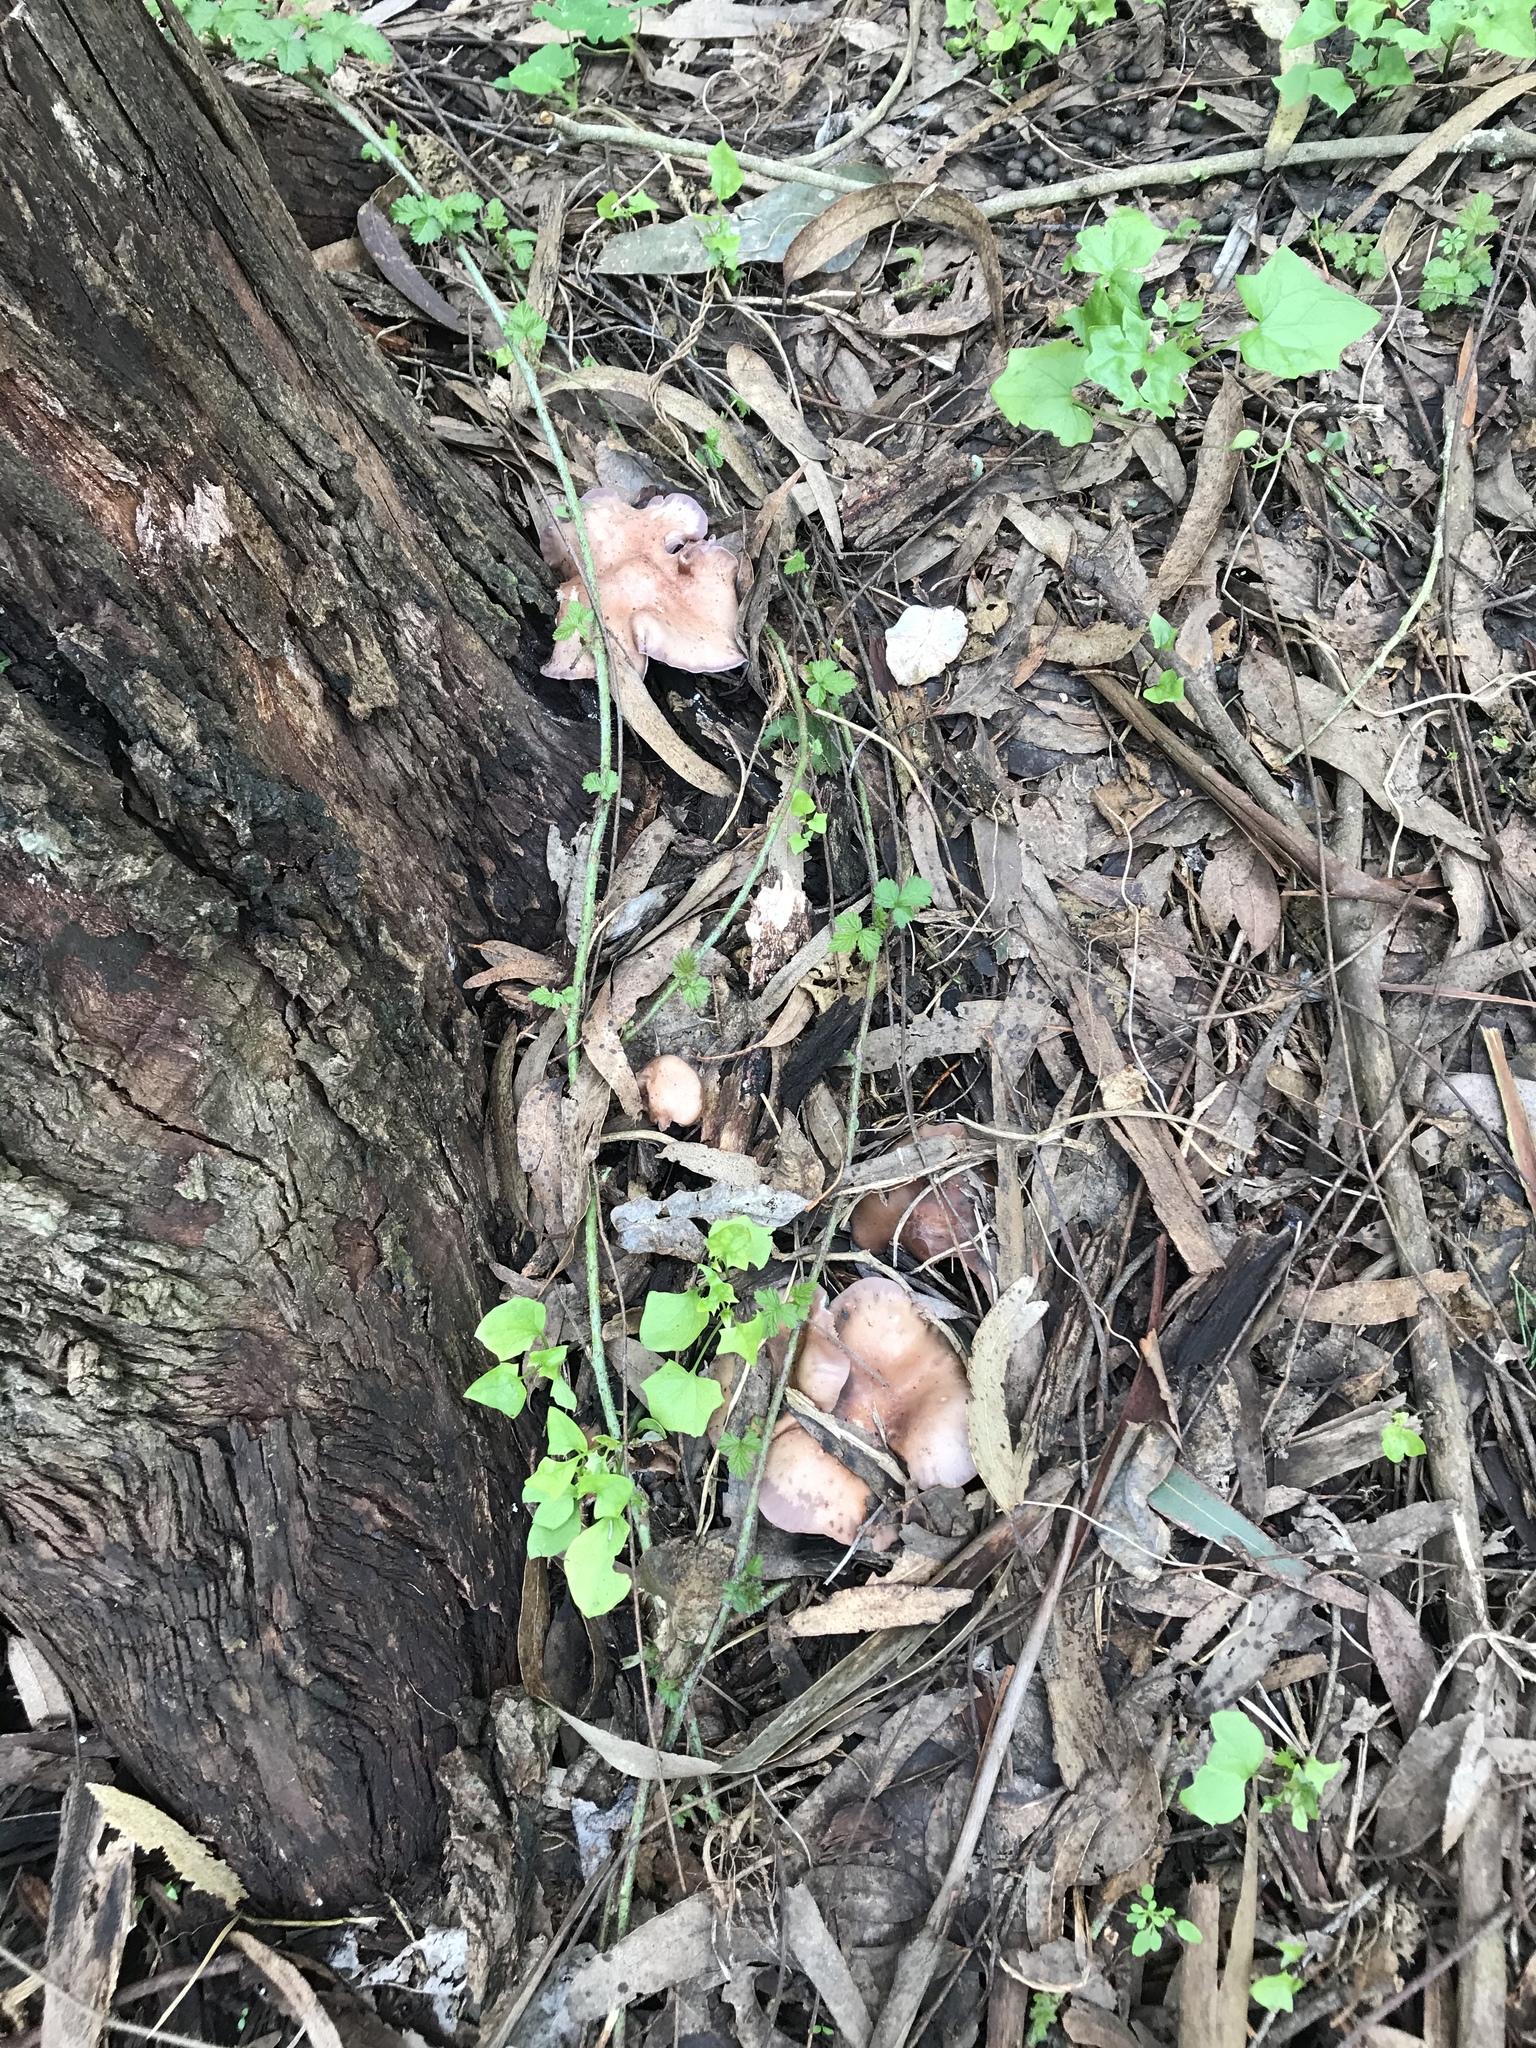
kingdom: Fungi
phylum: Basidiomycota
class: Agaricomycetes
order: Agaricales
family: Tricholomataceae
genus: Collybia
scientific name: Collybia
